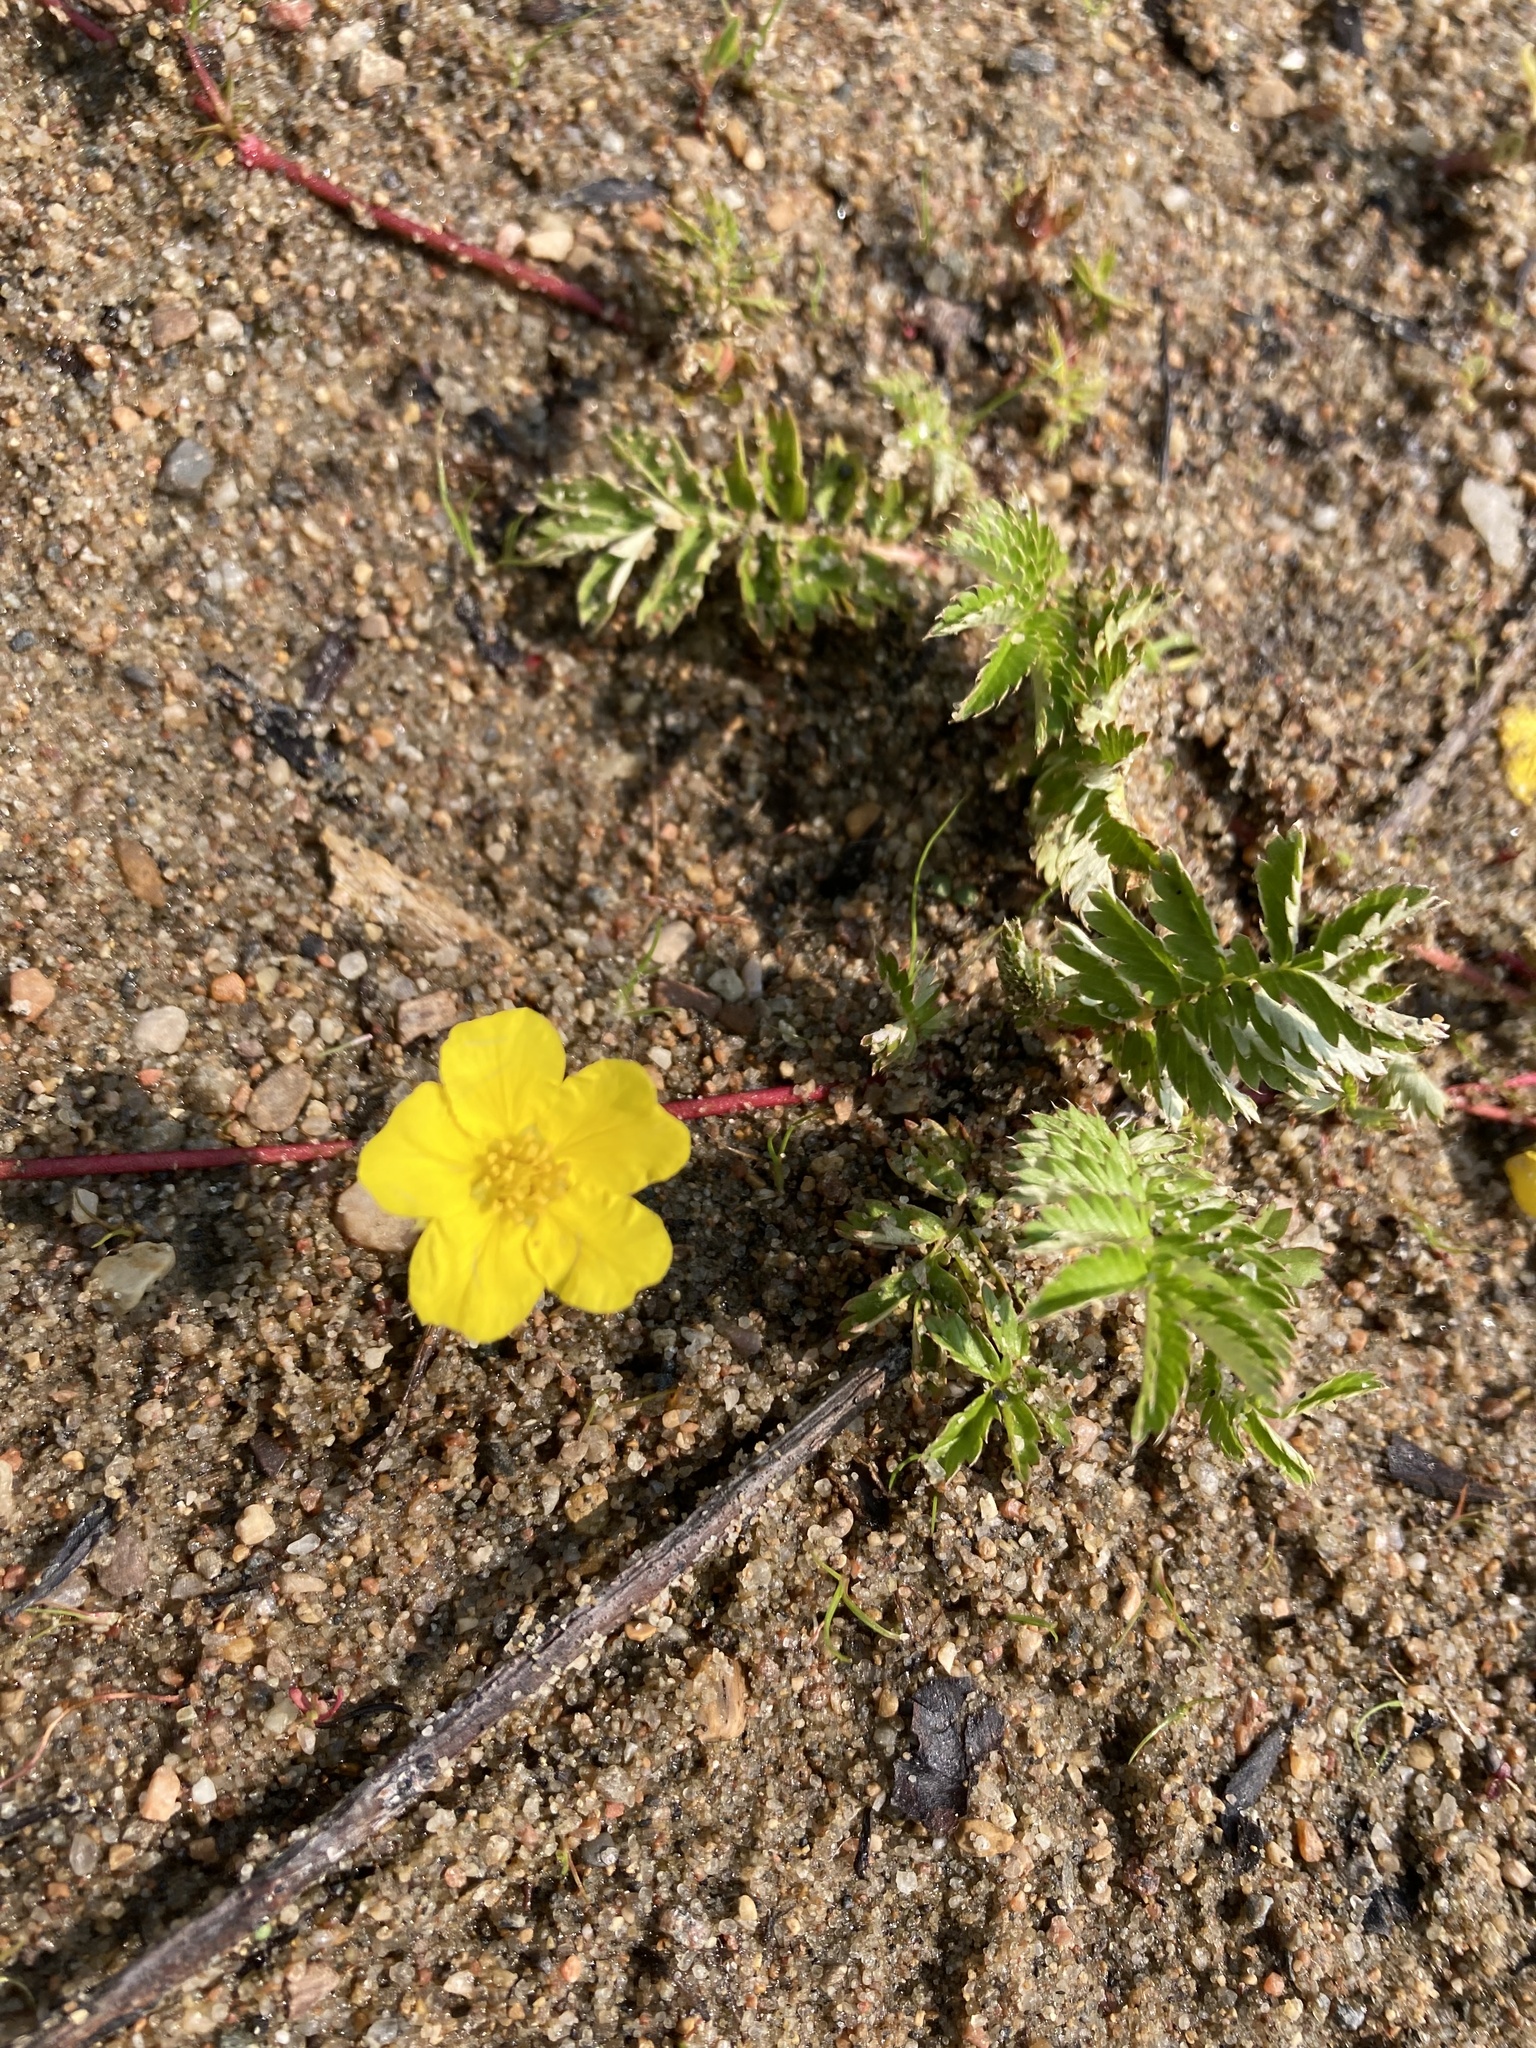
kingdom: Plantae
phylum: Tracheophyta
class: Magnoliopsida
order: Rosales
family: Rosaceae
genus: Argentina
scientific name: Argentina anserina
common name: Common silverweed
